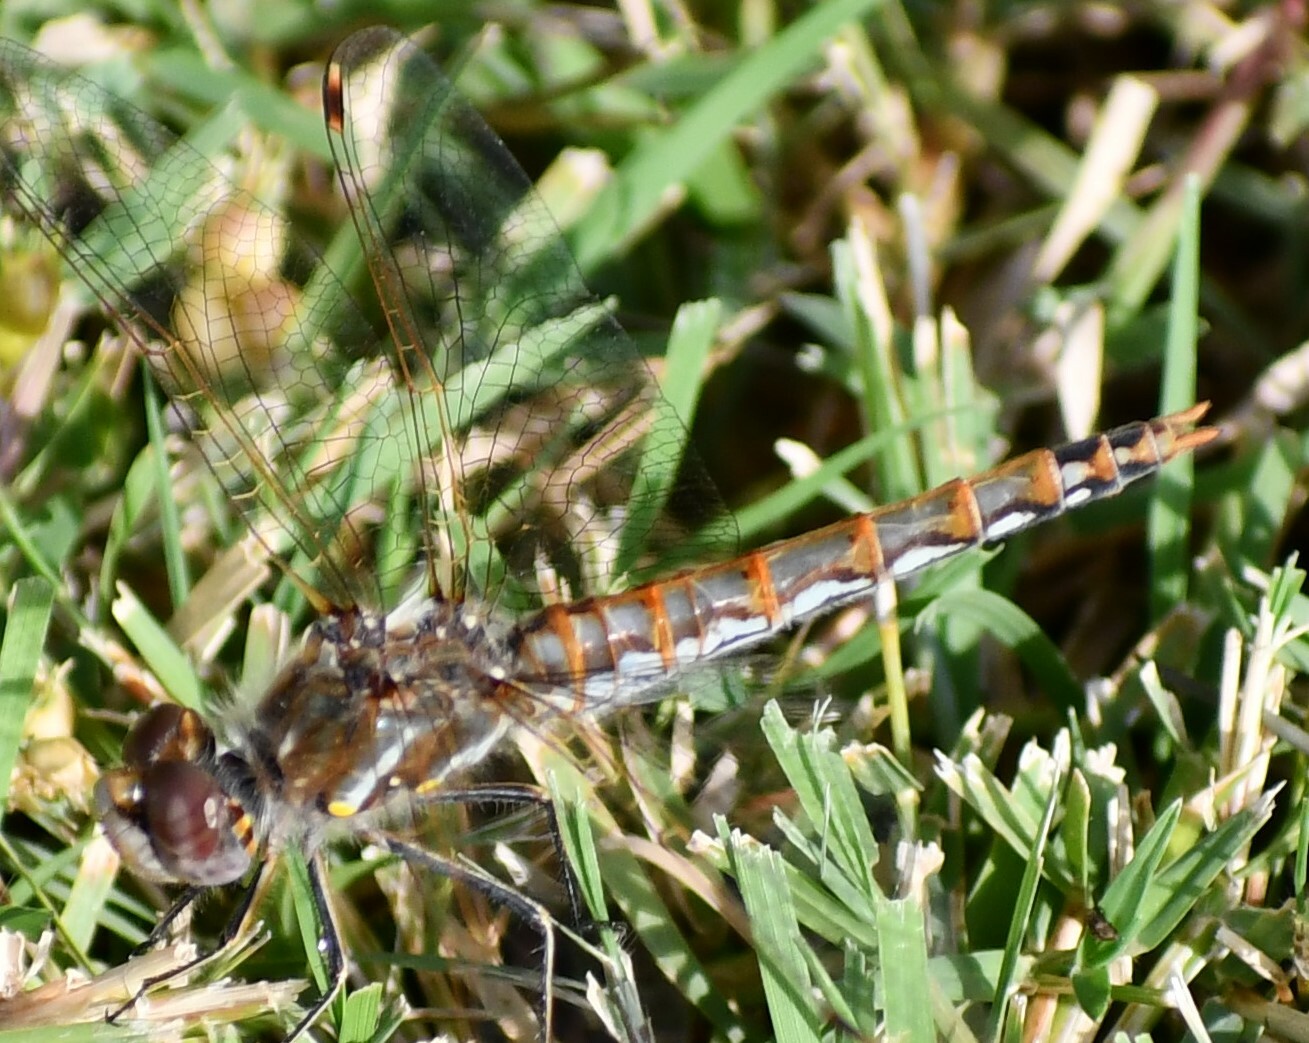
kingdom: Animalia
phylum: Arthropoda
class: Insecta
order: Odonata
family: Libellulidae
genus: Sympetrum
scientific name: Sympetrum corruptum
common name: Variegated meadowhawk
